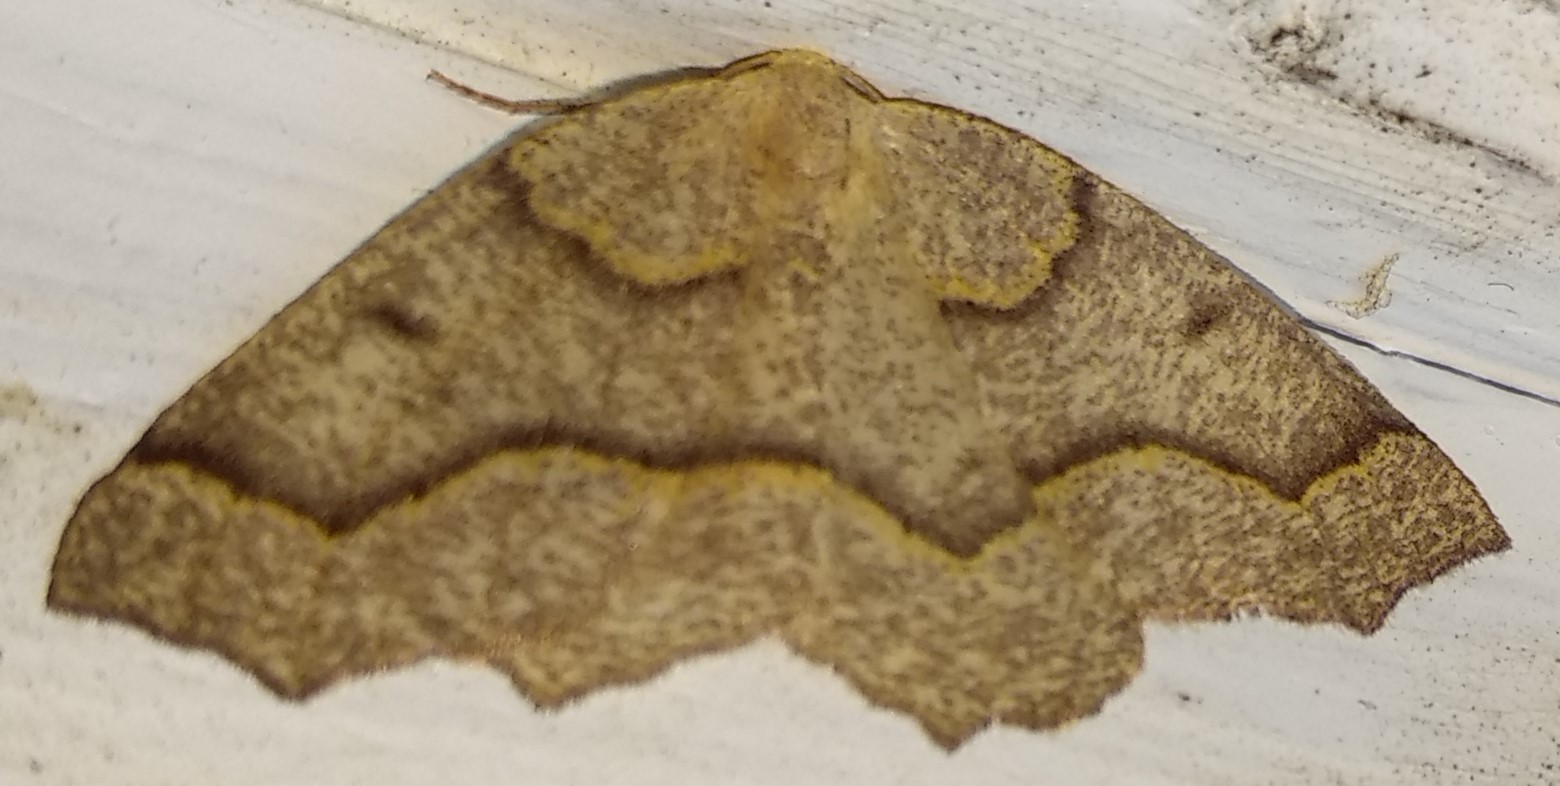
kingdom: Animalia
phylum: Arthropoda
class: Insecta
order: Lepidoptera
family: Geometridae
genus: Lambdina
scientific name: Lambdina fiscellaria
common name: Hemlock looper
